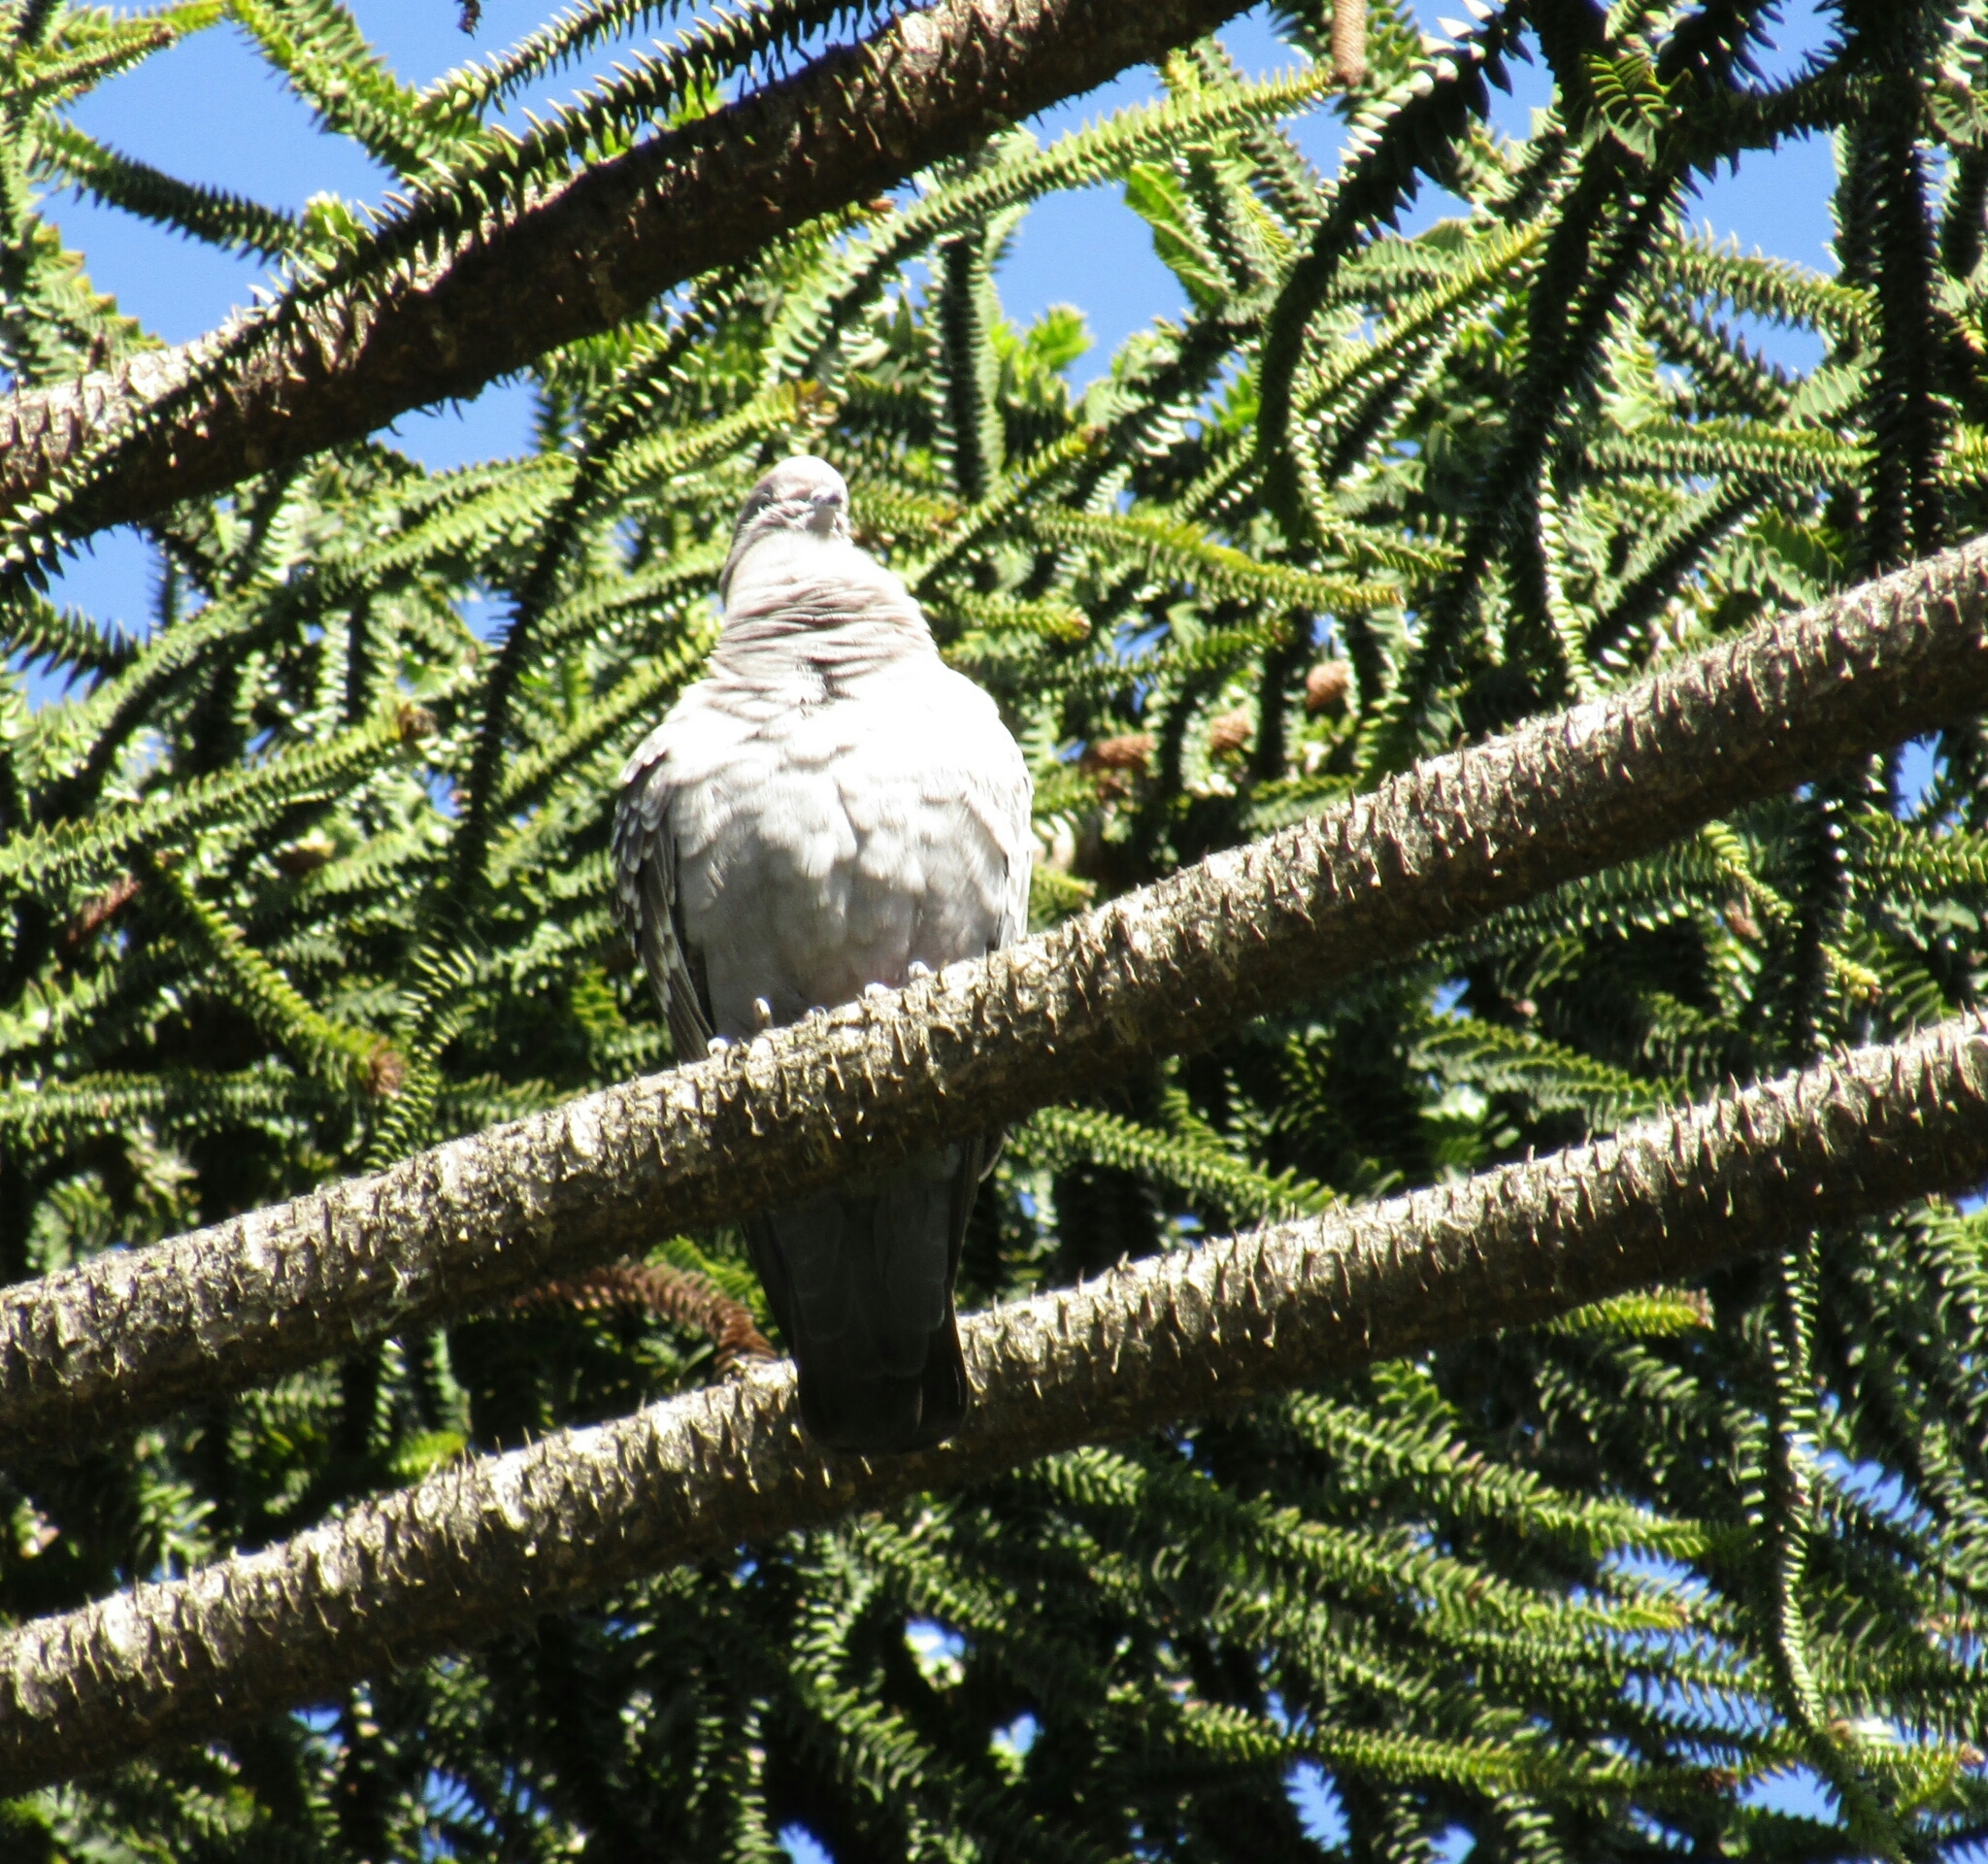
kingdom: Animalia
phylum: Chordata
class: Aves
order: Columbiformes
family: Columbidae
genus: Patagioenas
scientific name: Patagioenas maculosa
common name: Spot-winged pigeon
